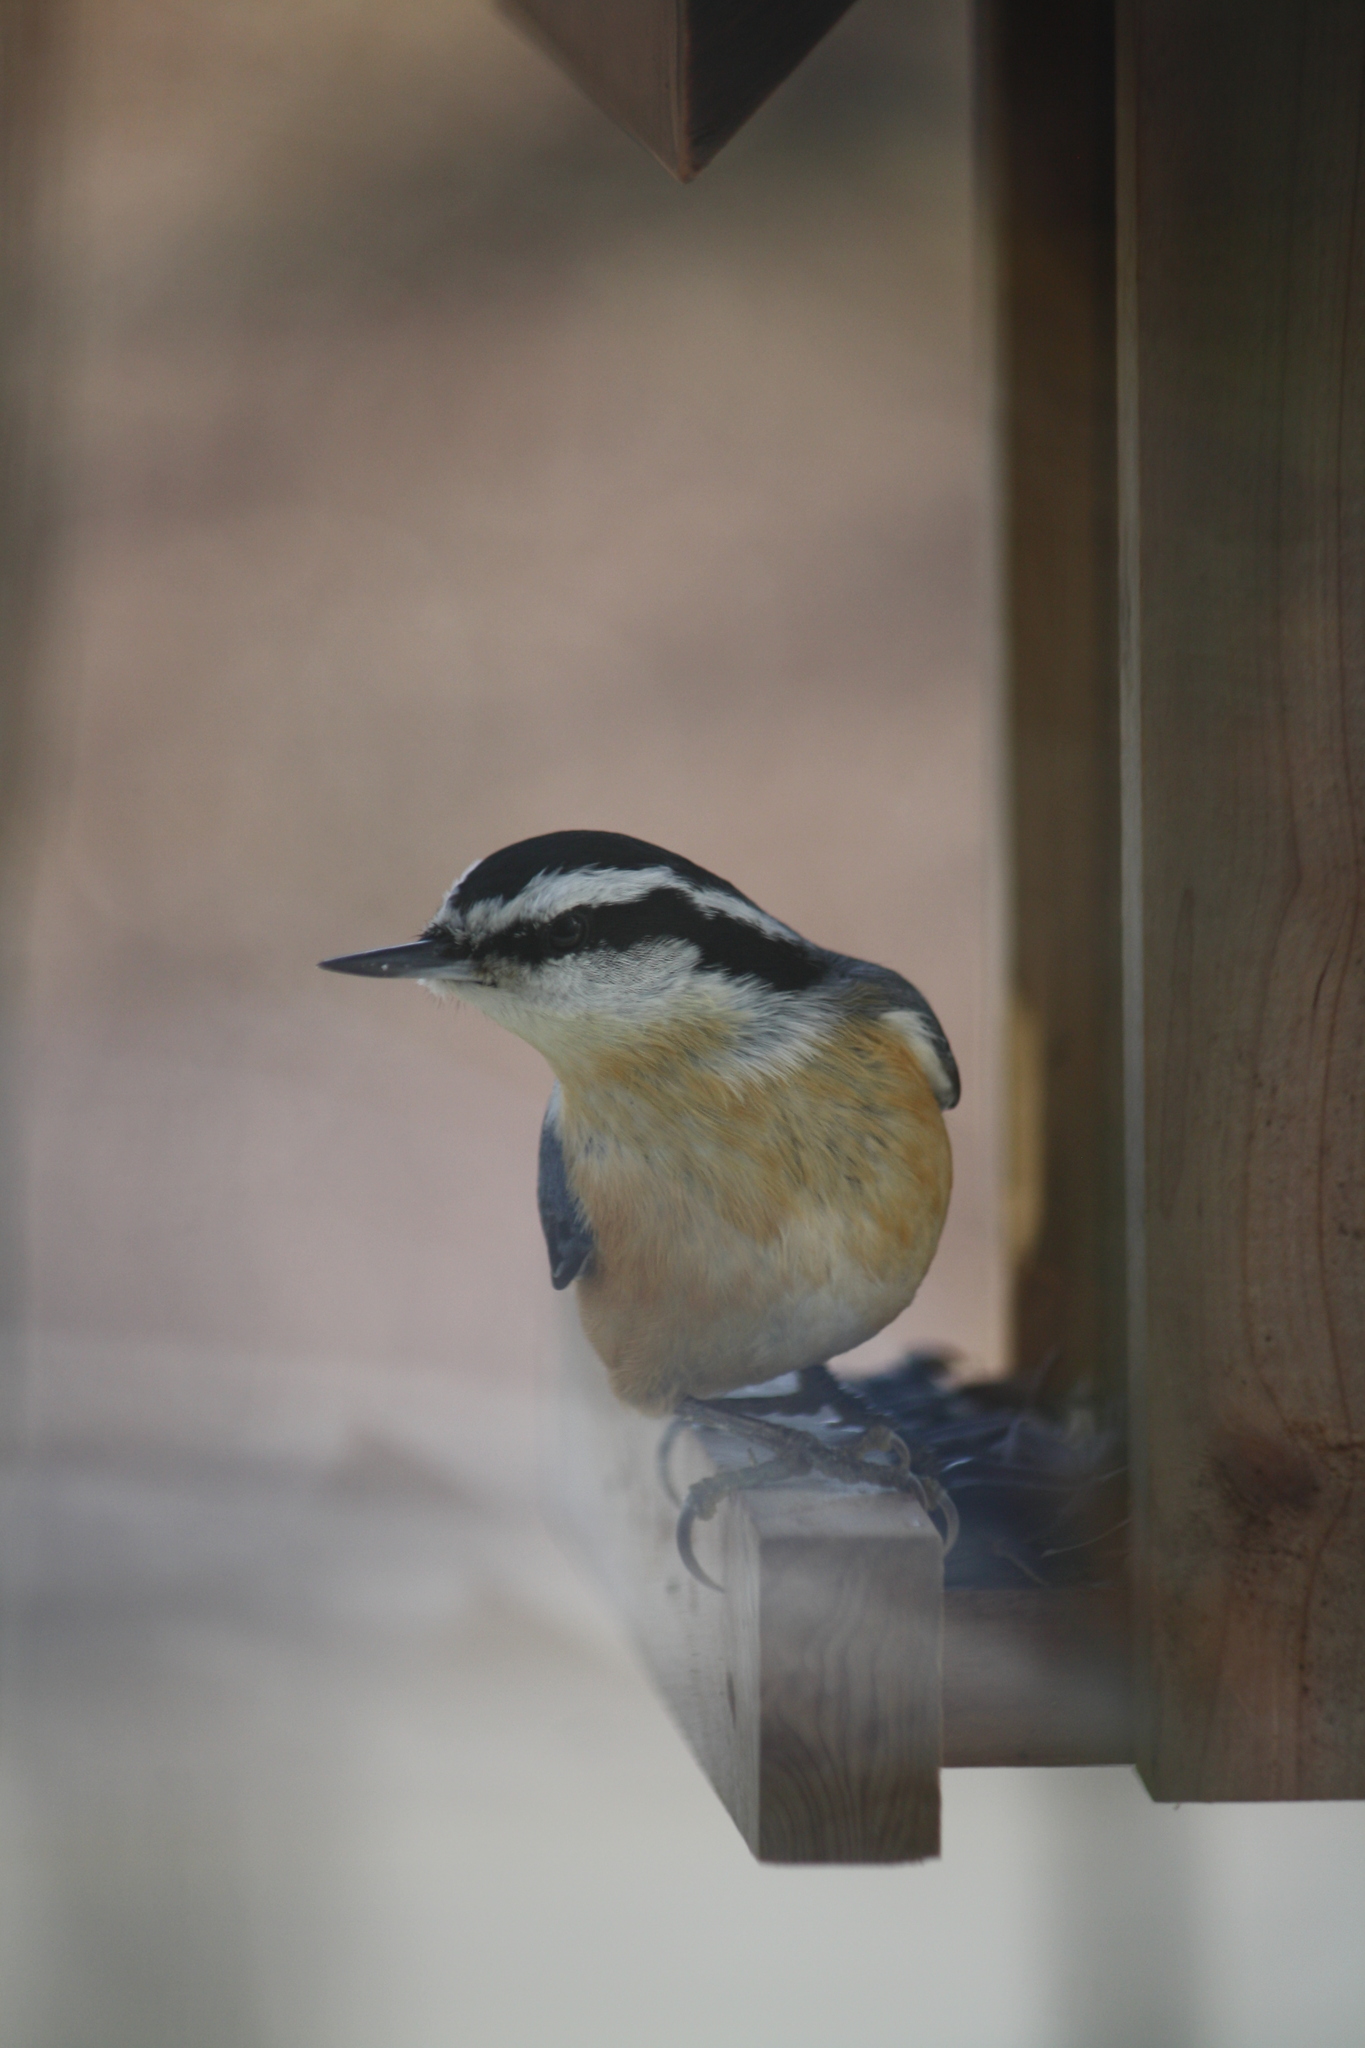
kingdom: Animalia
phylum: Chordata
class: Aves
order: Passeriformes
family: Sittidae
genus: Sitta
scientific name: Sitta canadensis
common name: Red-breasted nuthatch
